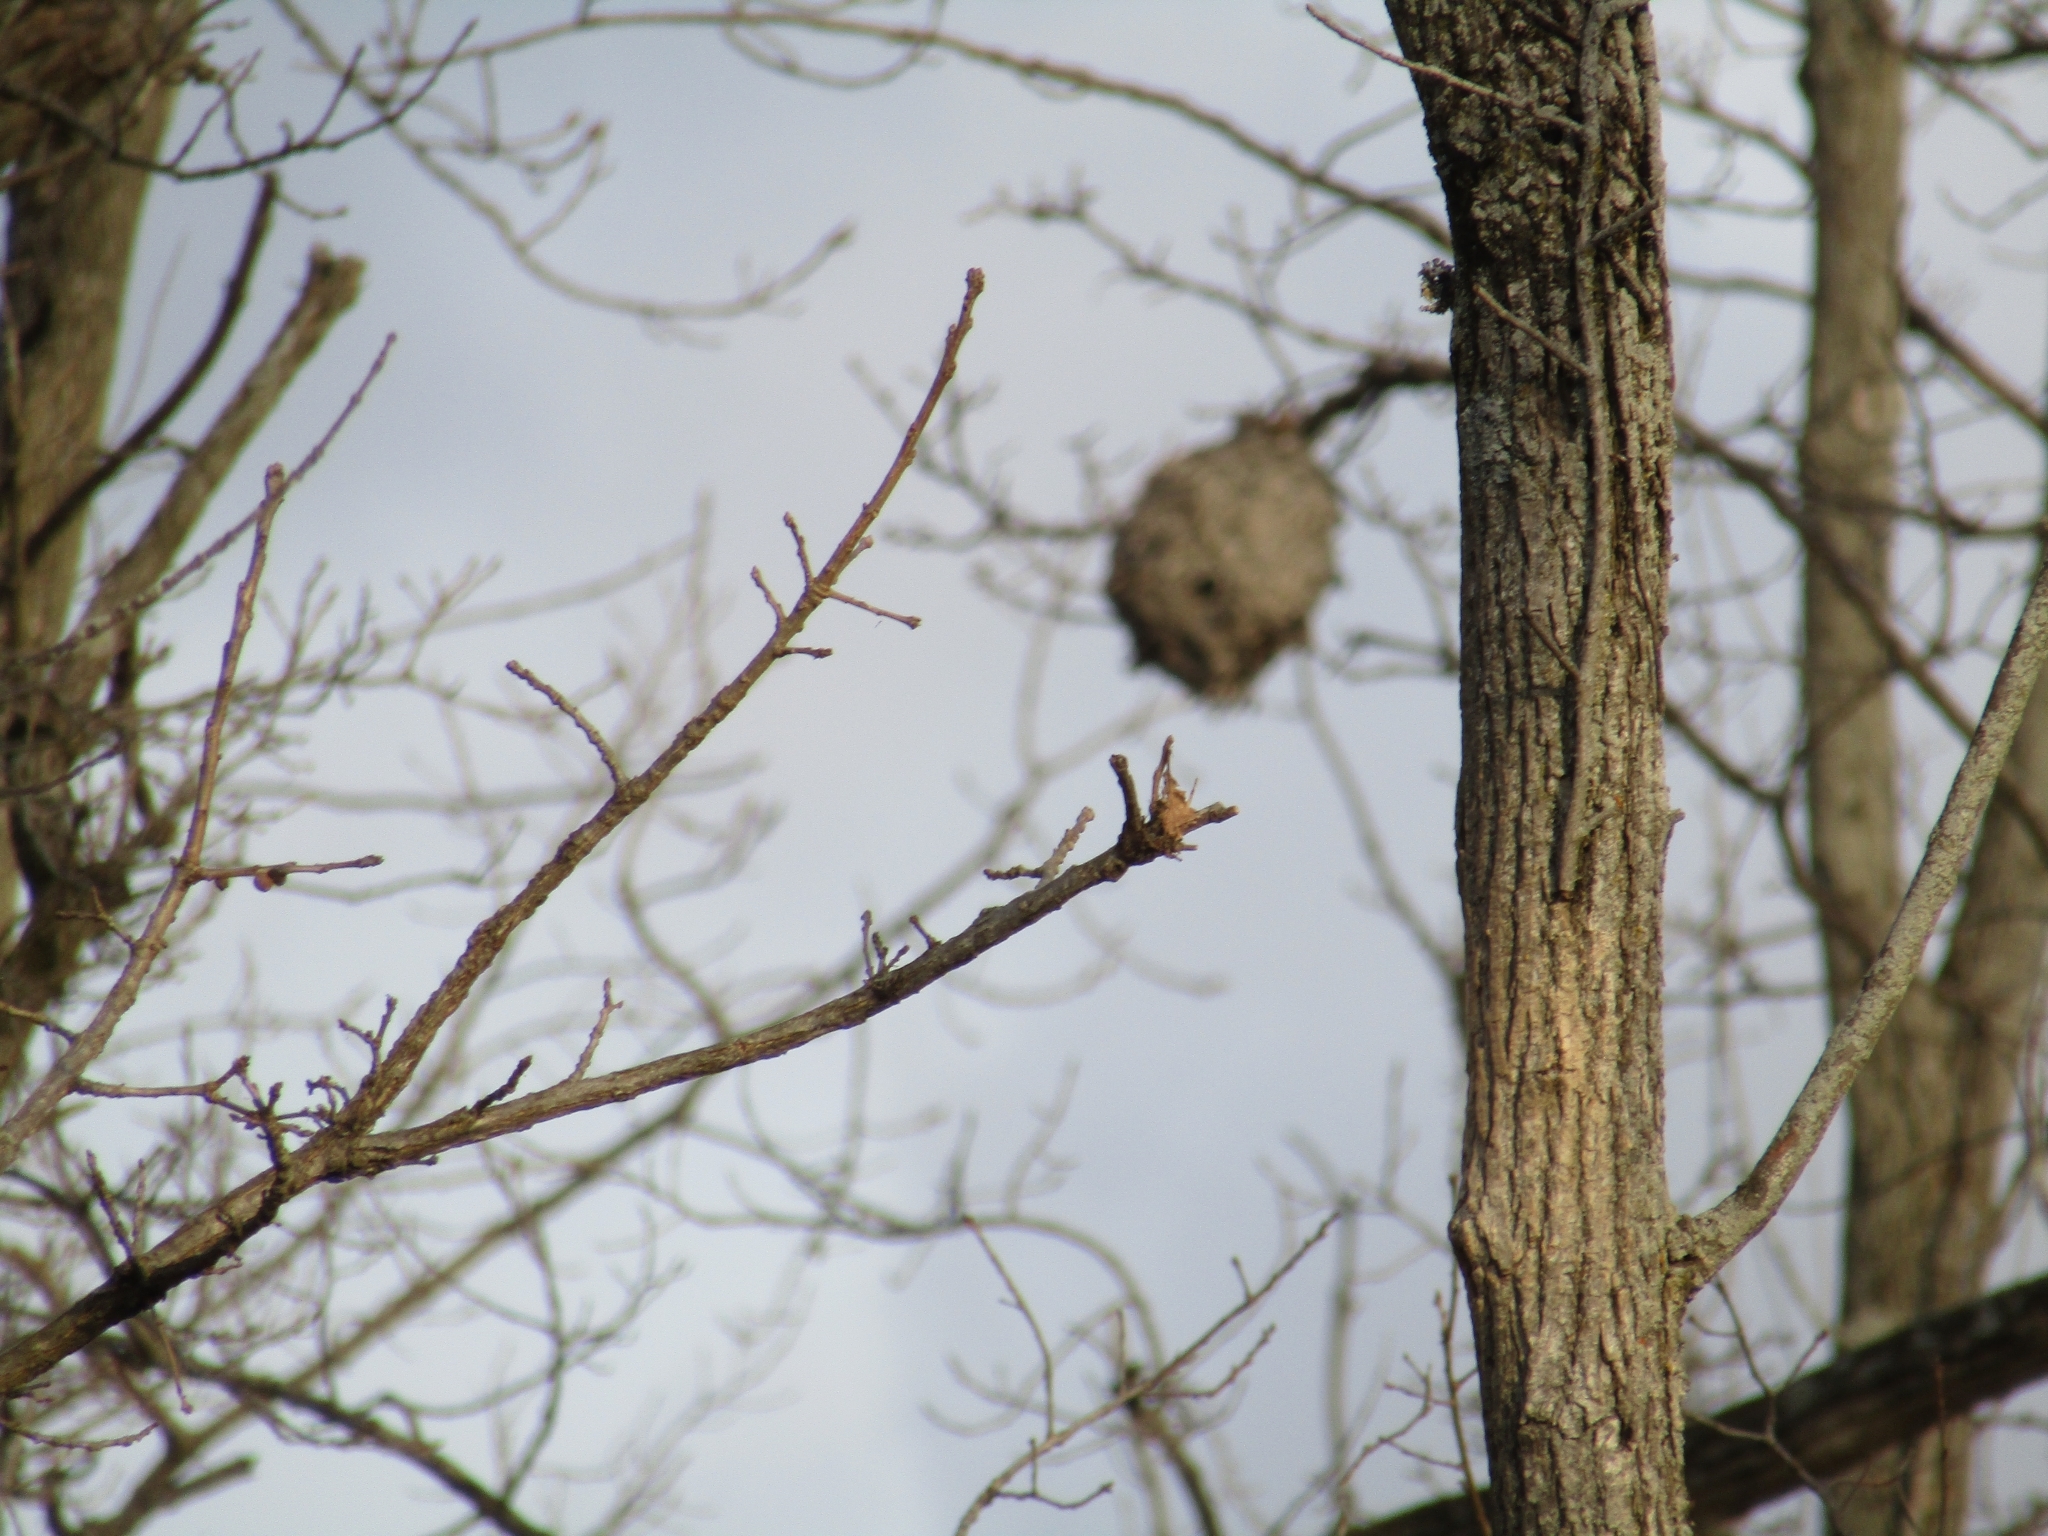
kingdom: Animalia
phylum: Arthropoda
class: Insecta
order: Hymenoptera
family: Vespidae
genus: Dolichovespula
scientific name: Dolichovespula
